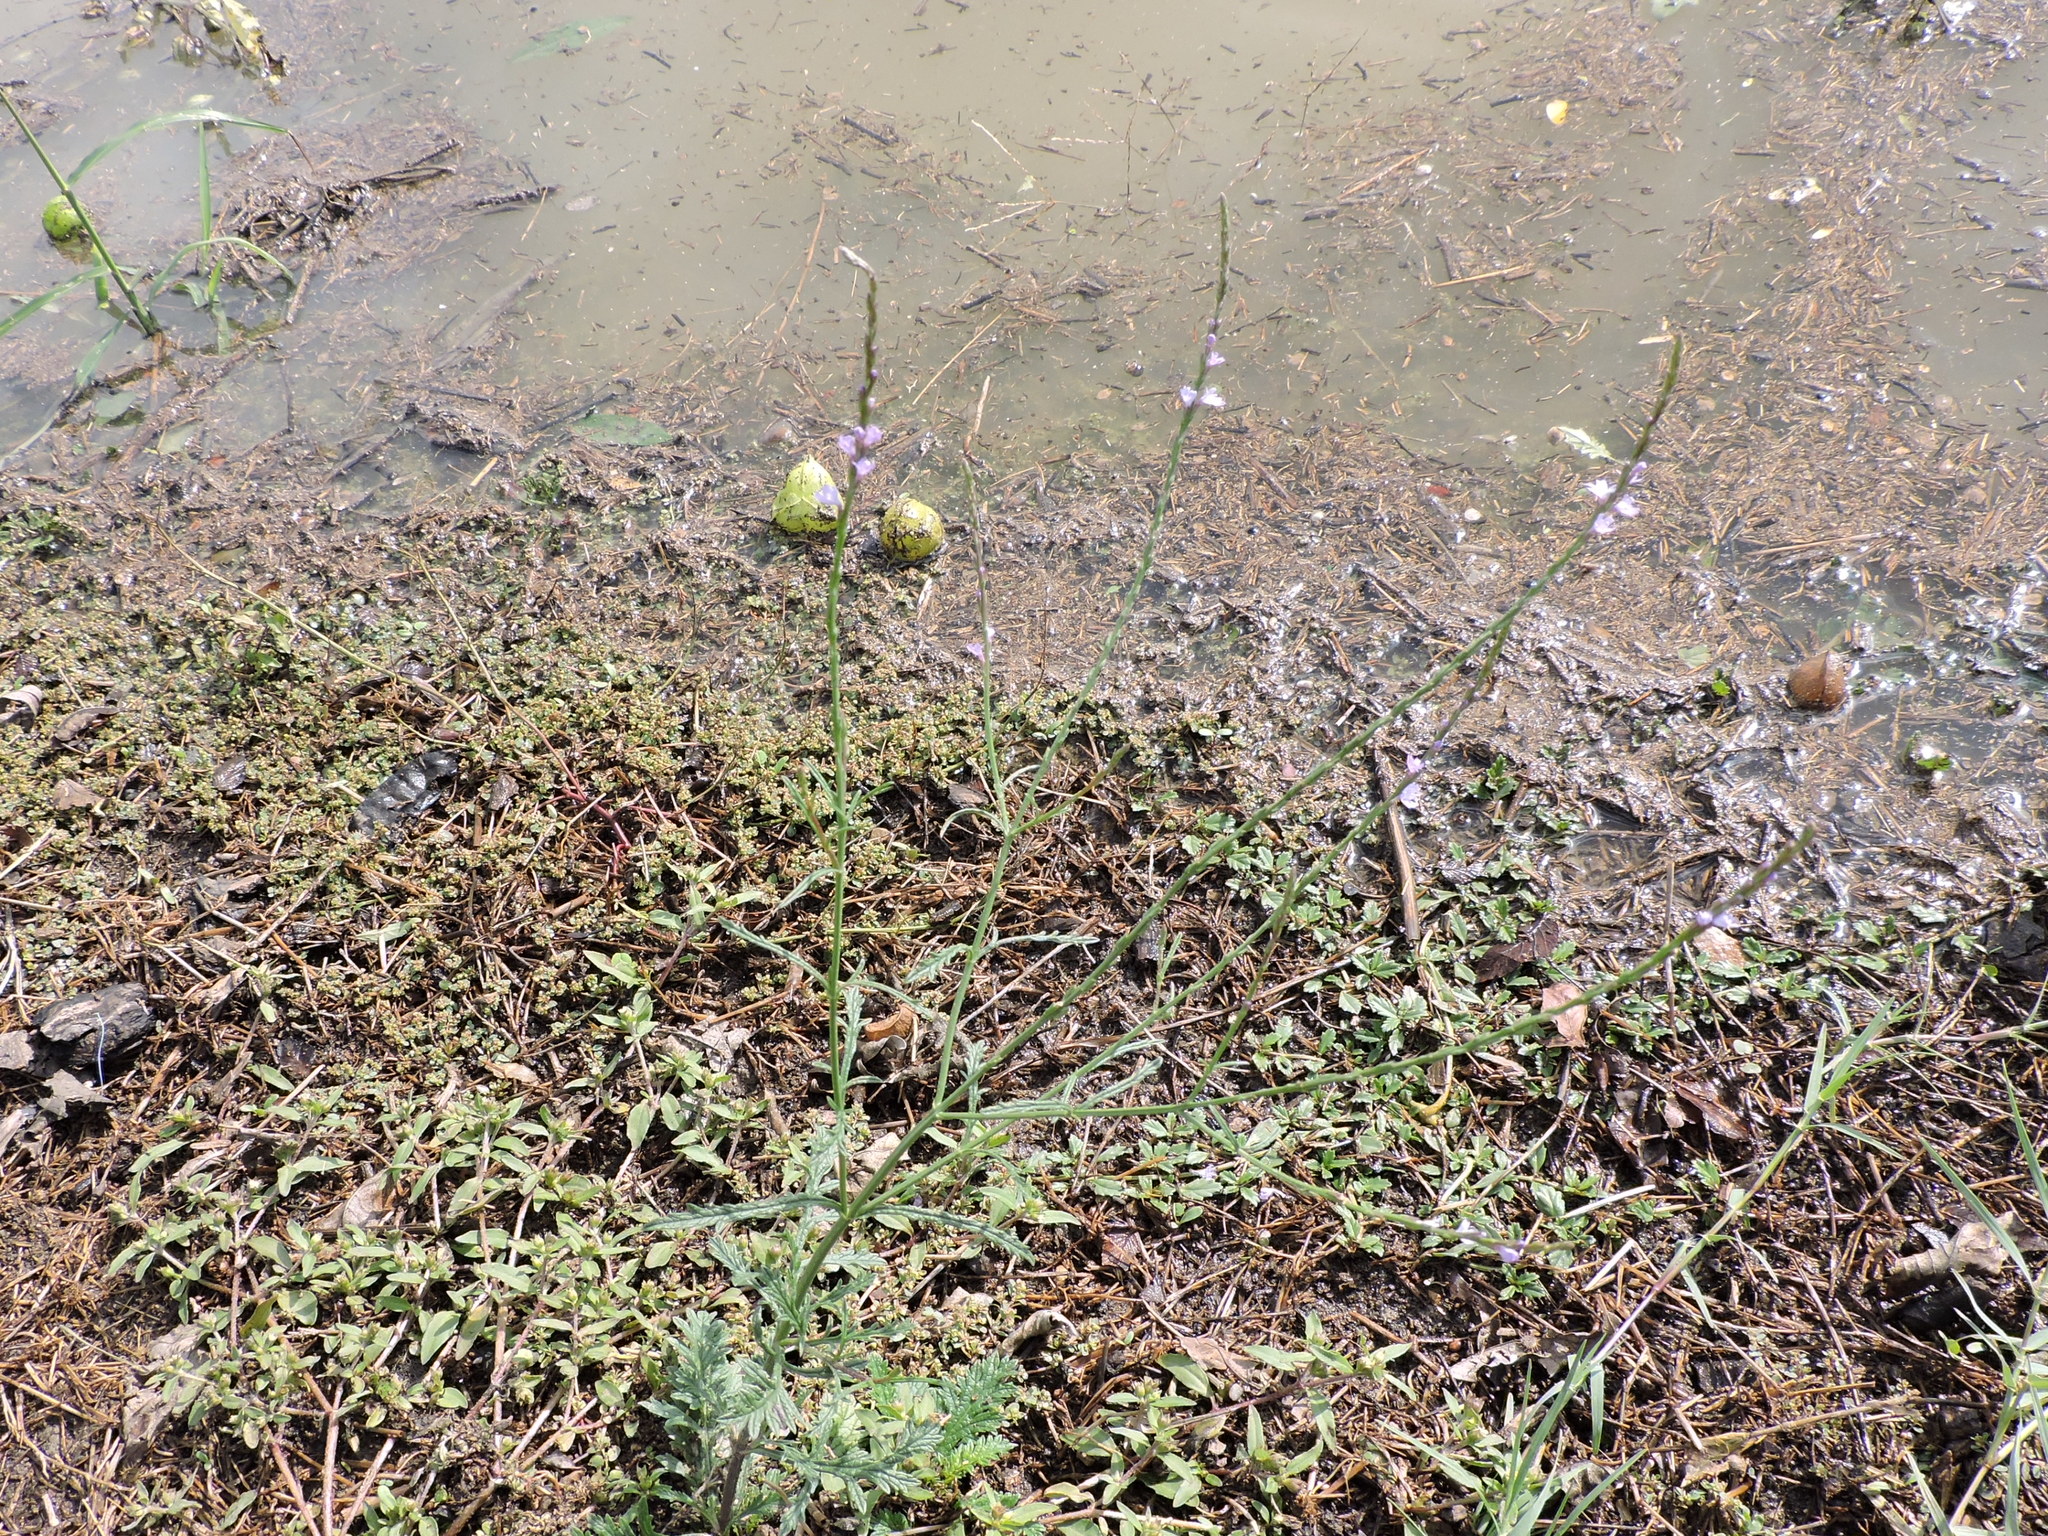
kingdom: Plantae
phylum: Tracheophyta
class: Magnoliopsida
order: Lamiales
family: Verbenaceae
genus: Verbena
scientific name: Verbena halei
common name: Texas vervain
